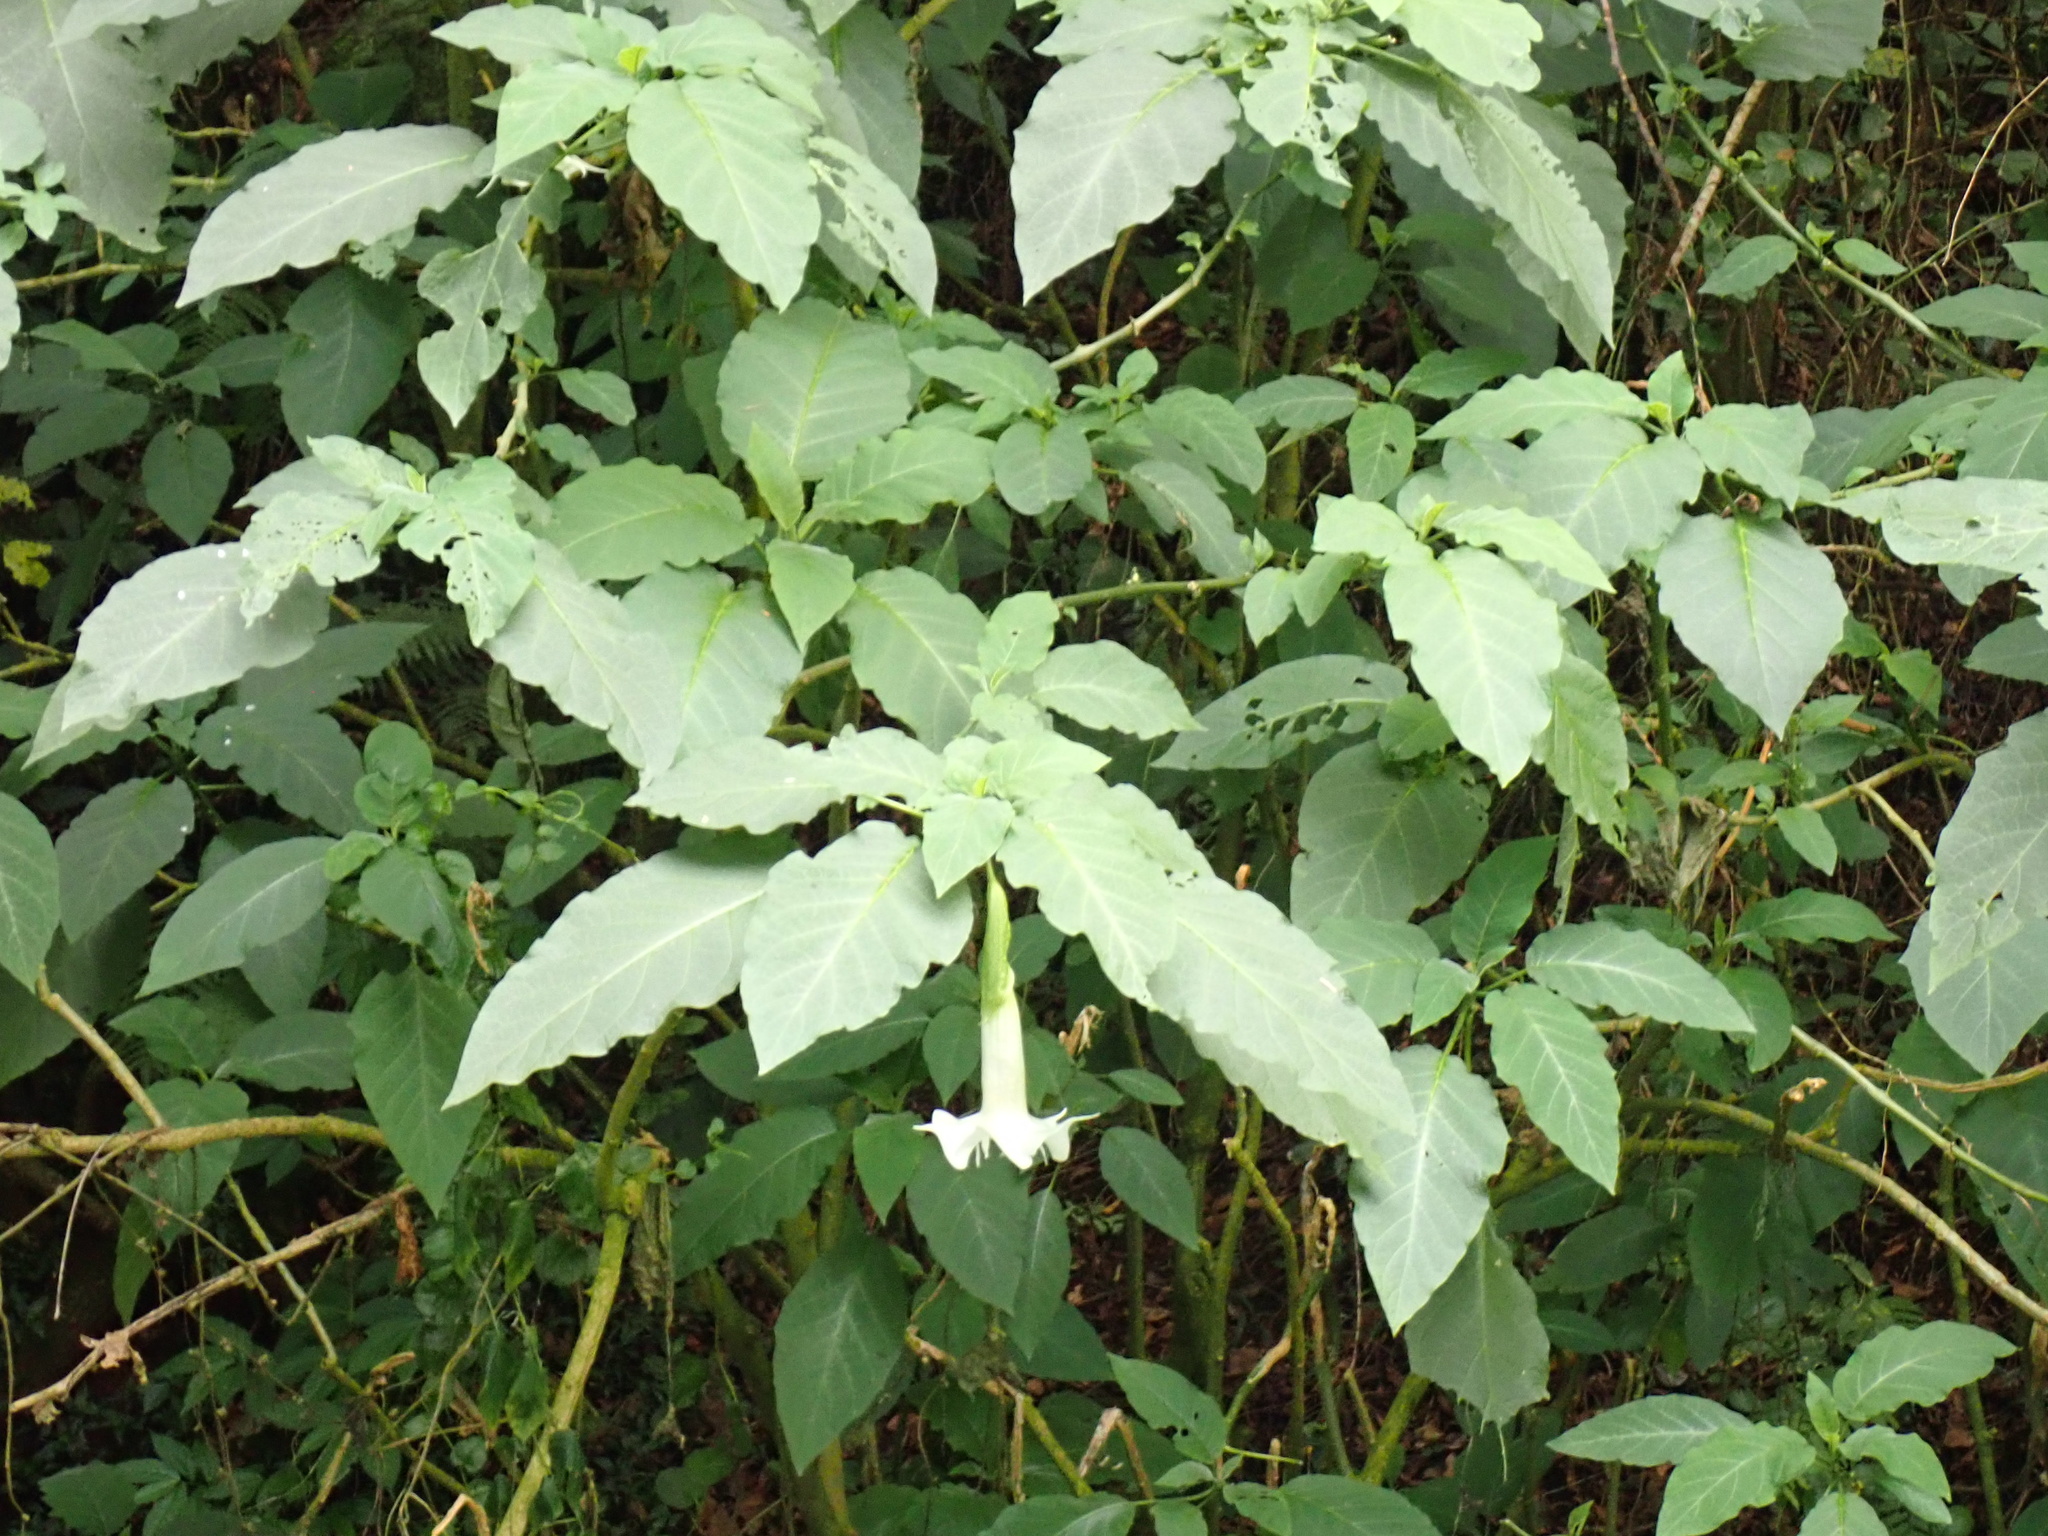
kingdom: Plantae
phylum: Tracheophyta
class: Magnoliopsida
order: Solanales
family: Solanaceae
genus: Brugmansia
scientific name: Brugmansia arborea
